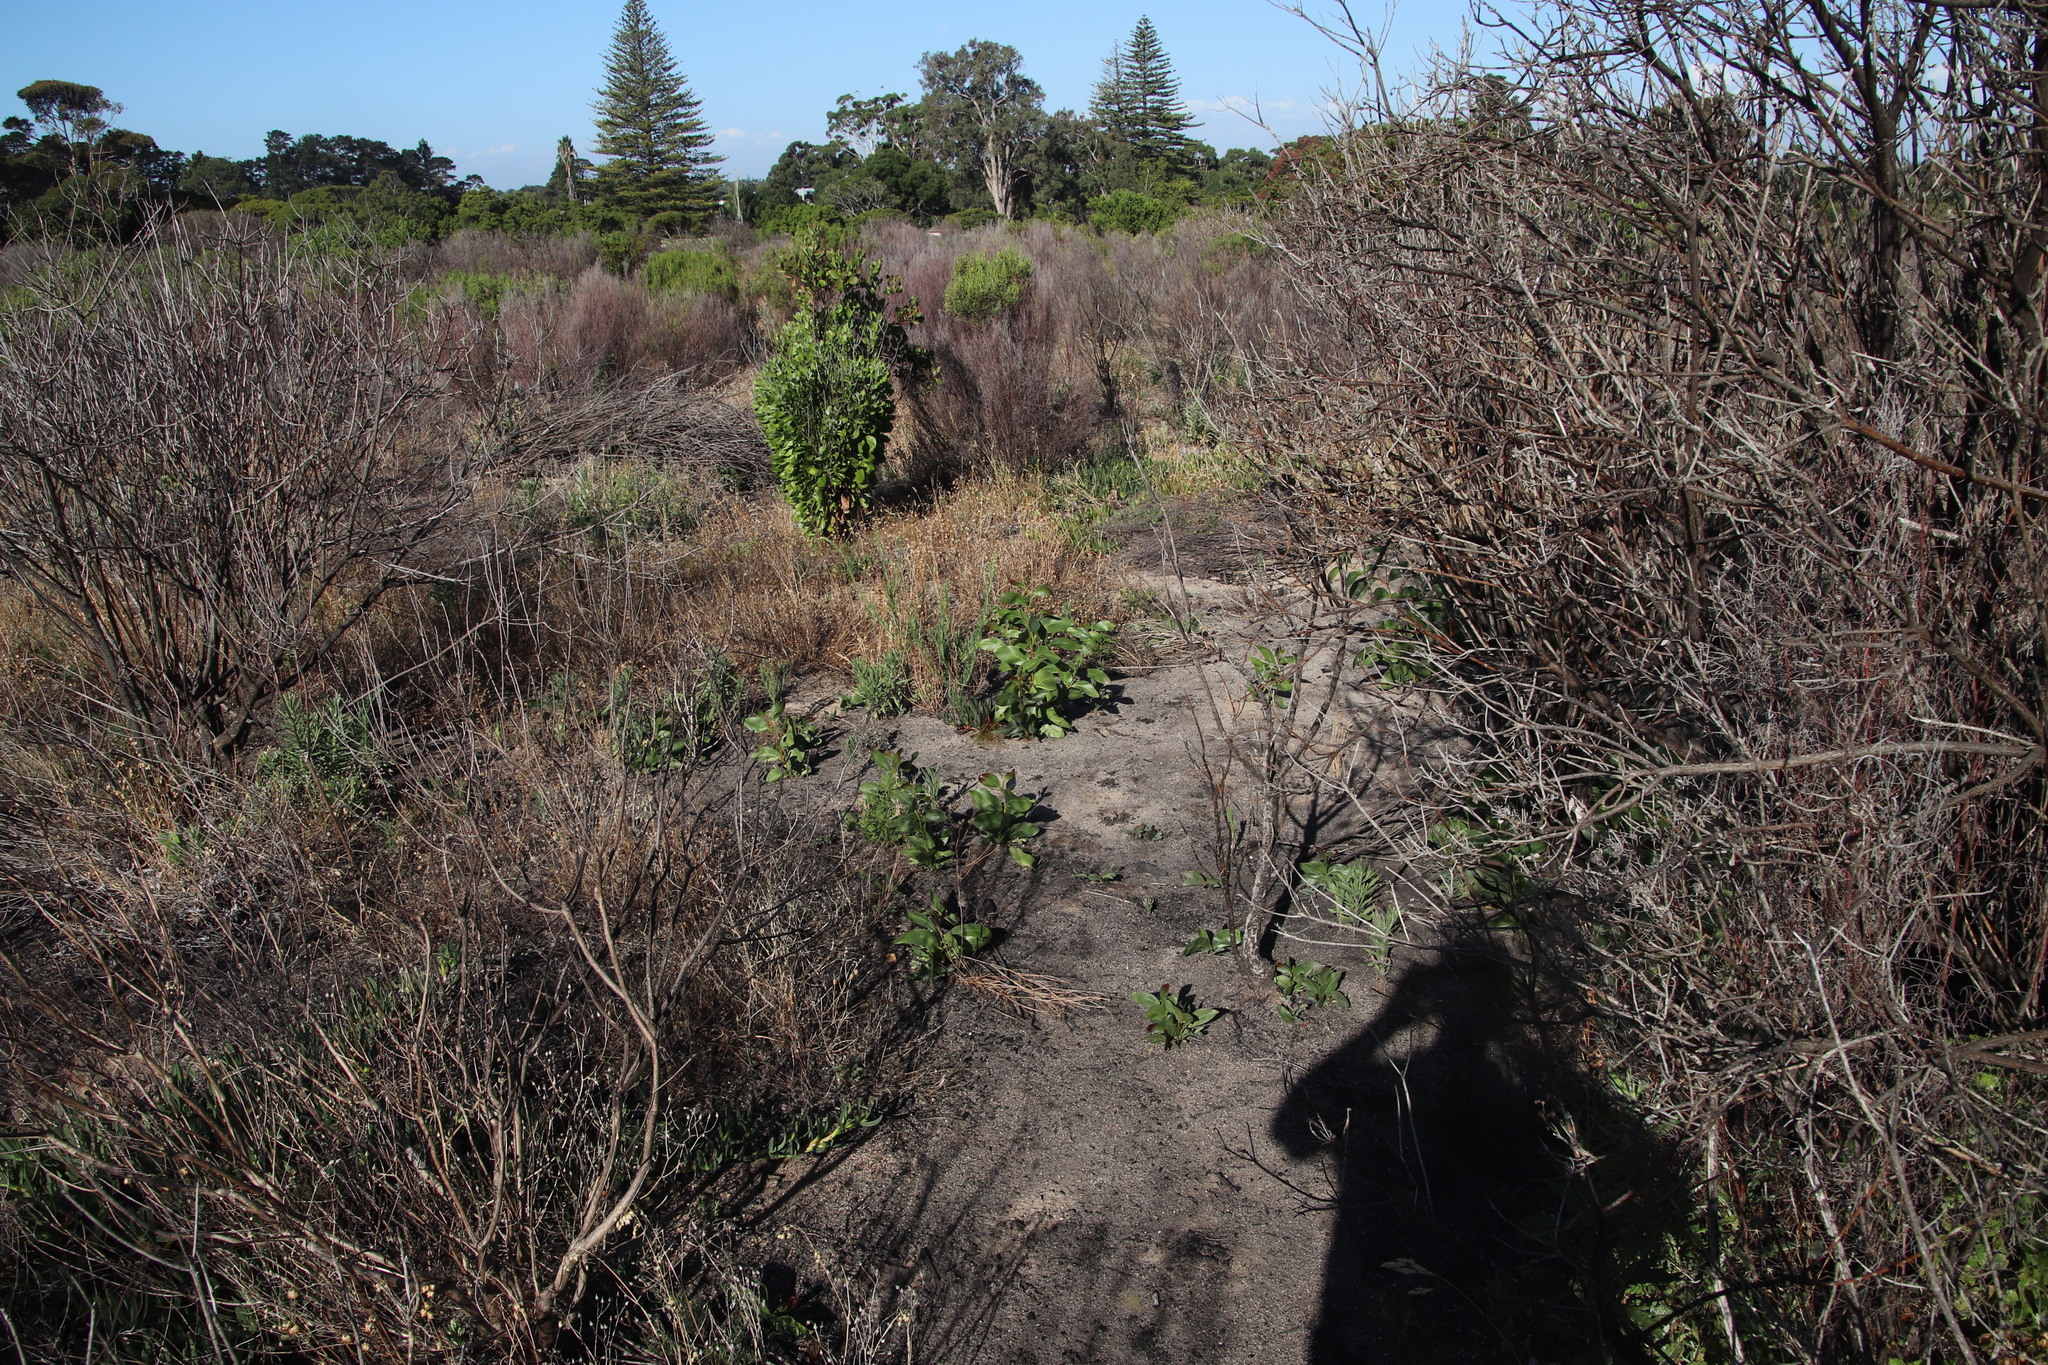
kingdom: Plantae
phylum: Tracheophyta
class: Magnoliopsida
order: Fabales
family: Fabaceae
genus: Acacia
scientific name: Acacia pycnantha
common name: Golden wattle
